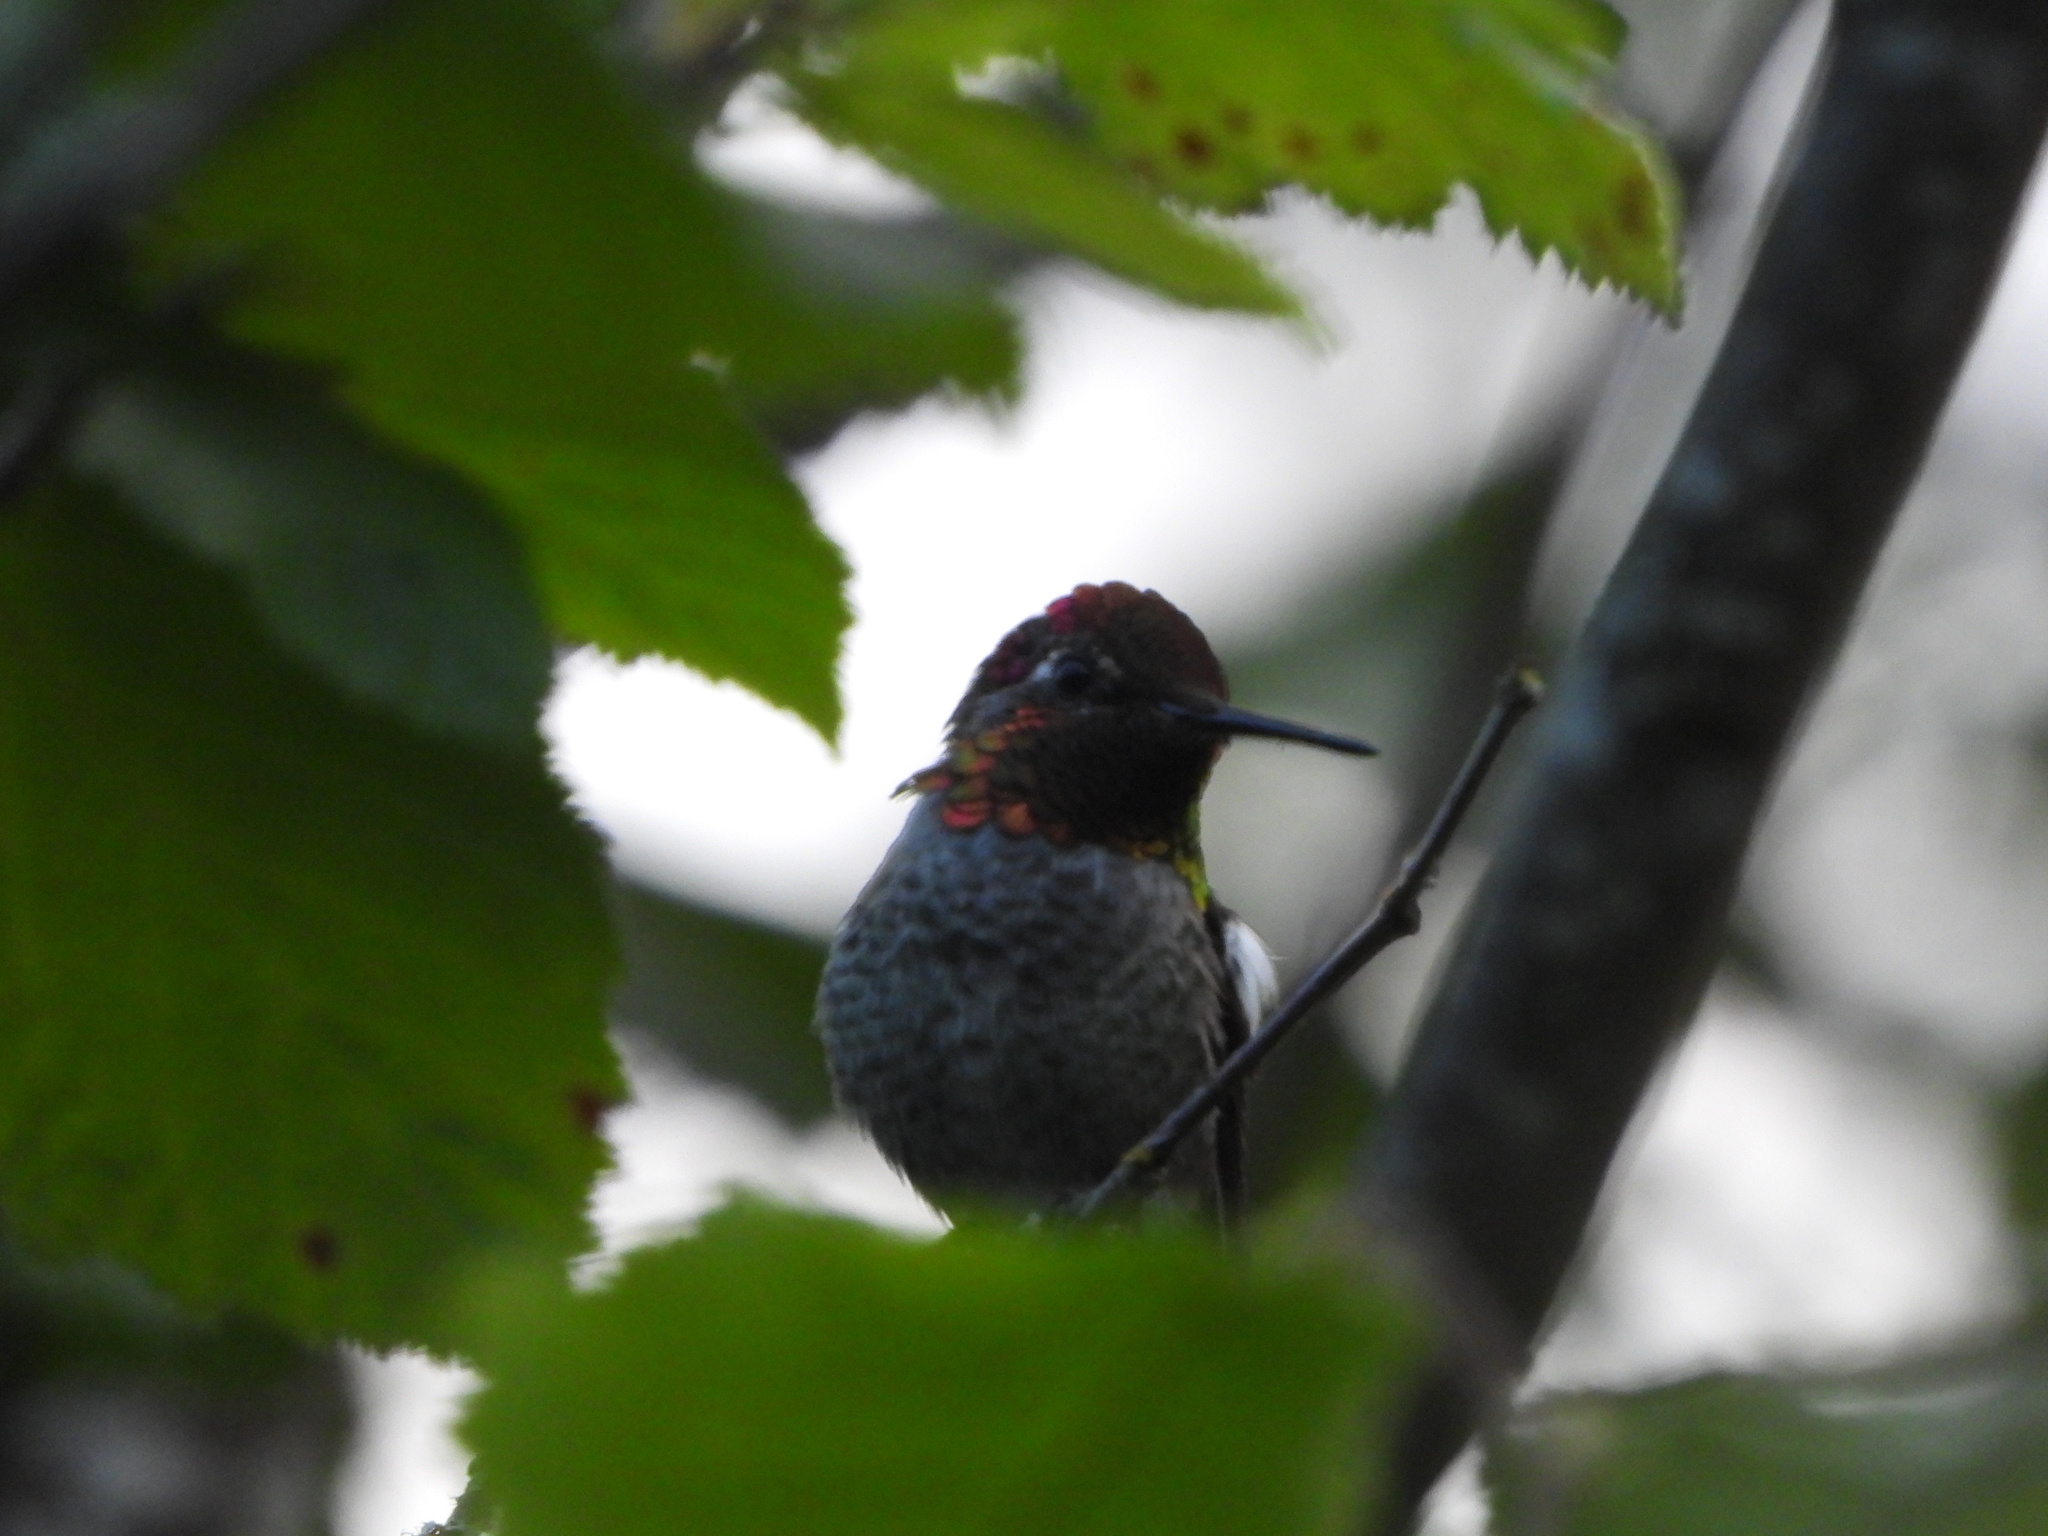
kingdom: Animalia
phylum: Chordata
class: Aves
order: Apodiformes
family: Trochilidae
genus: Calypte
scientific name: Calypte anna
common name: Anna's hummingbird
